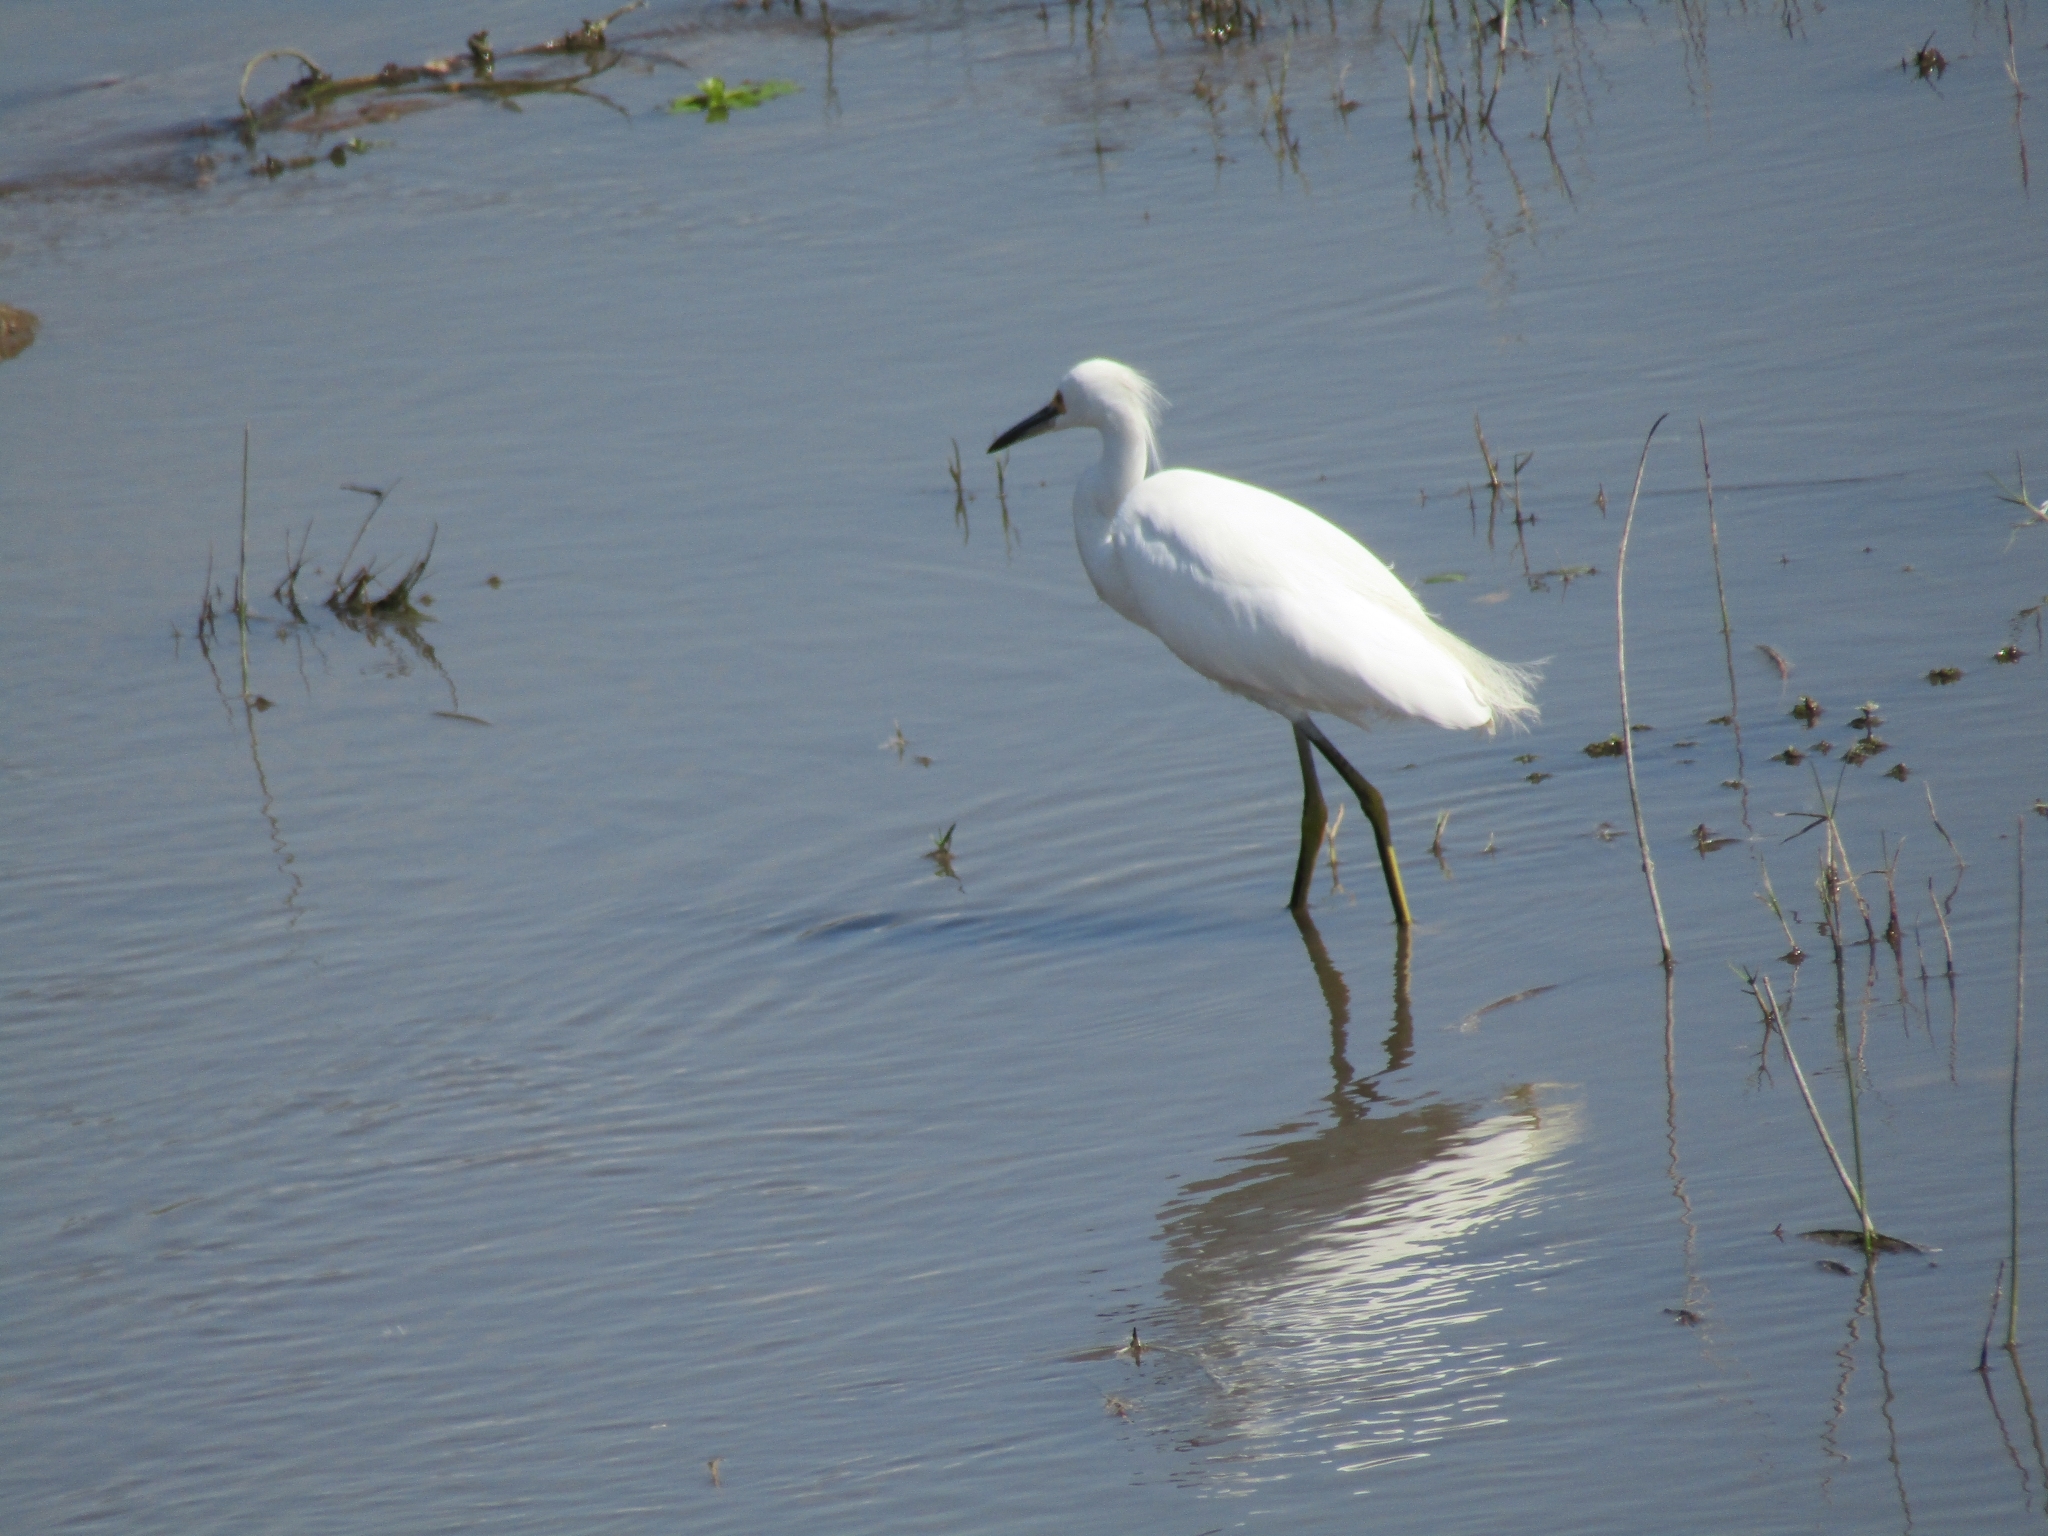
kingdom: Animalia
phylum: Chordata
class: Aves
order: Pelecaniformes
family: Ardeidae
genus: Egretta
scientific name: Egretta thula
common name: Snowy egret
